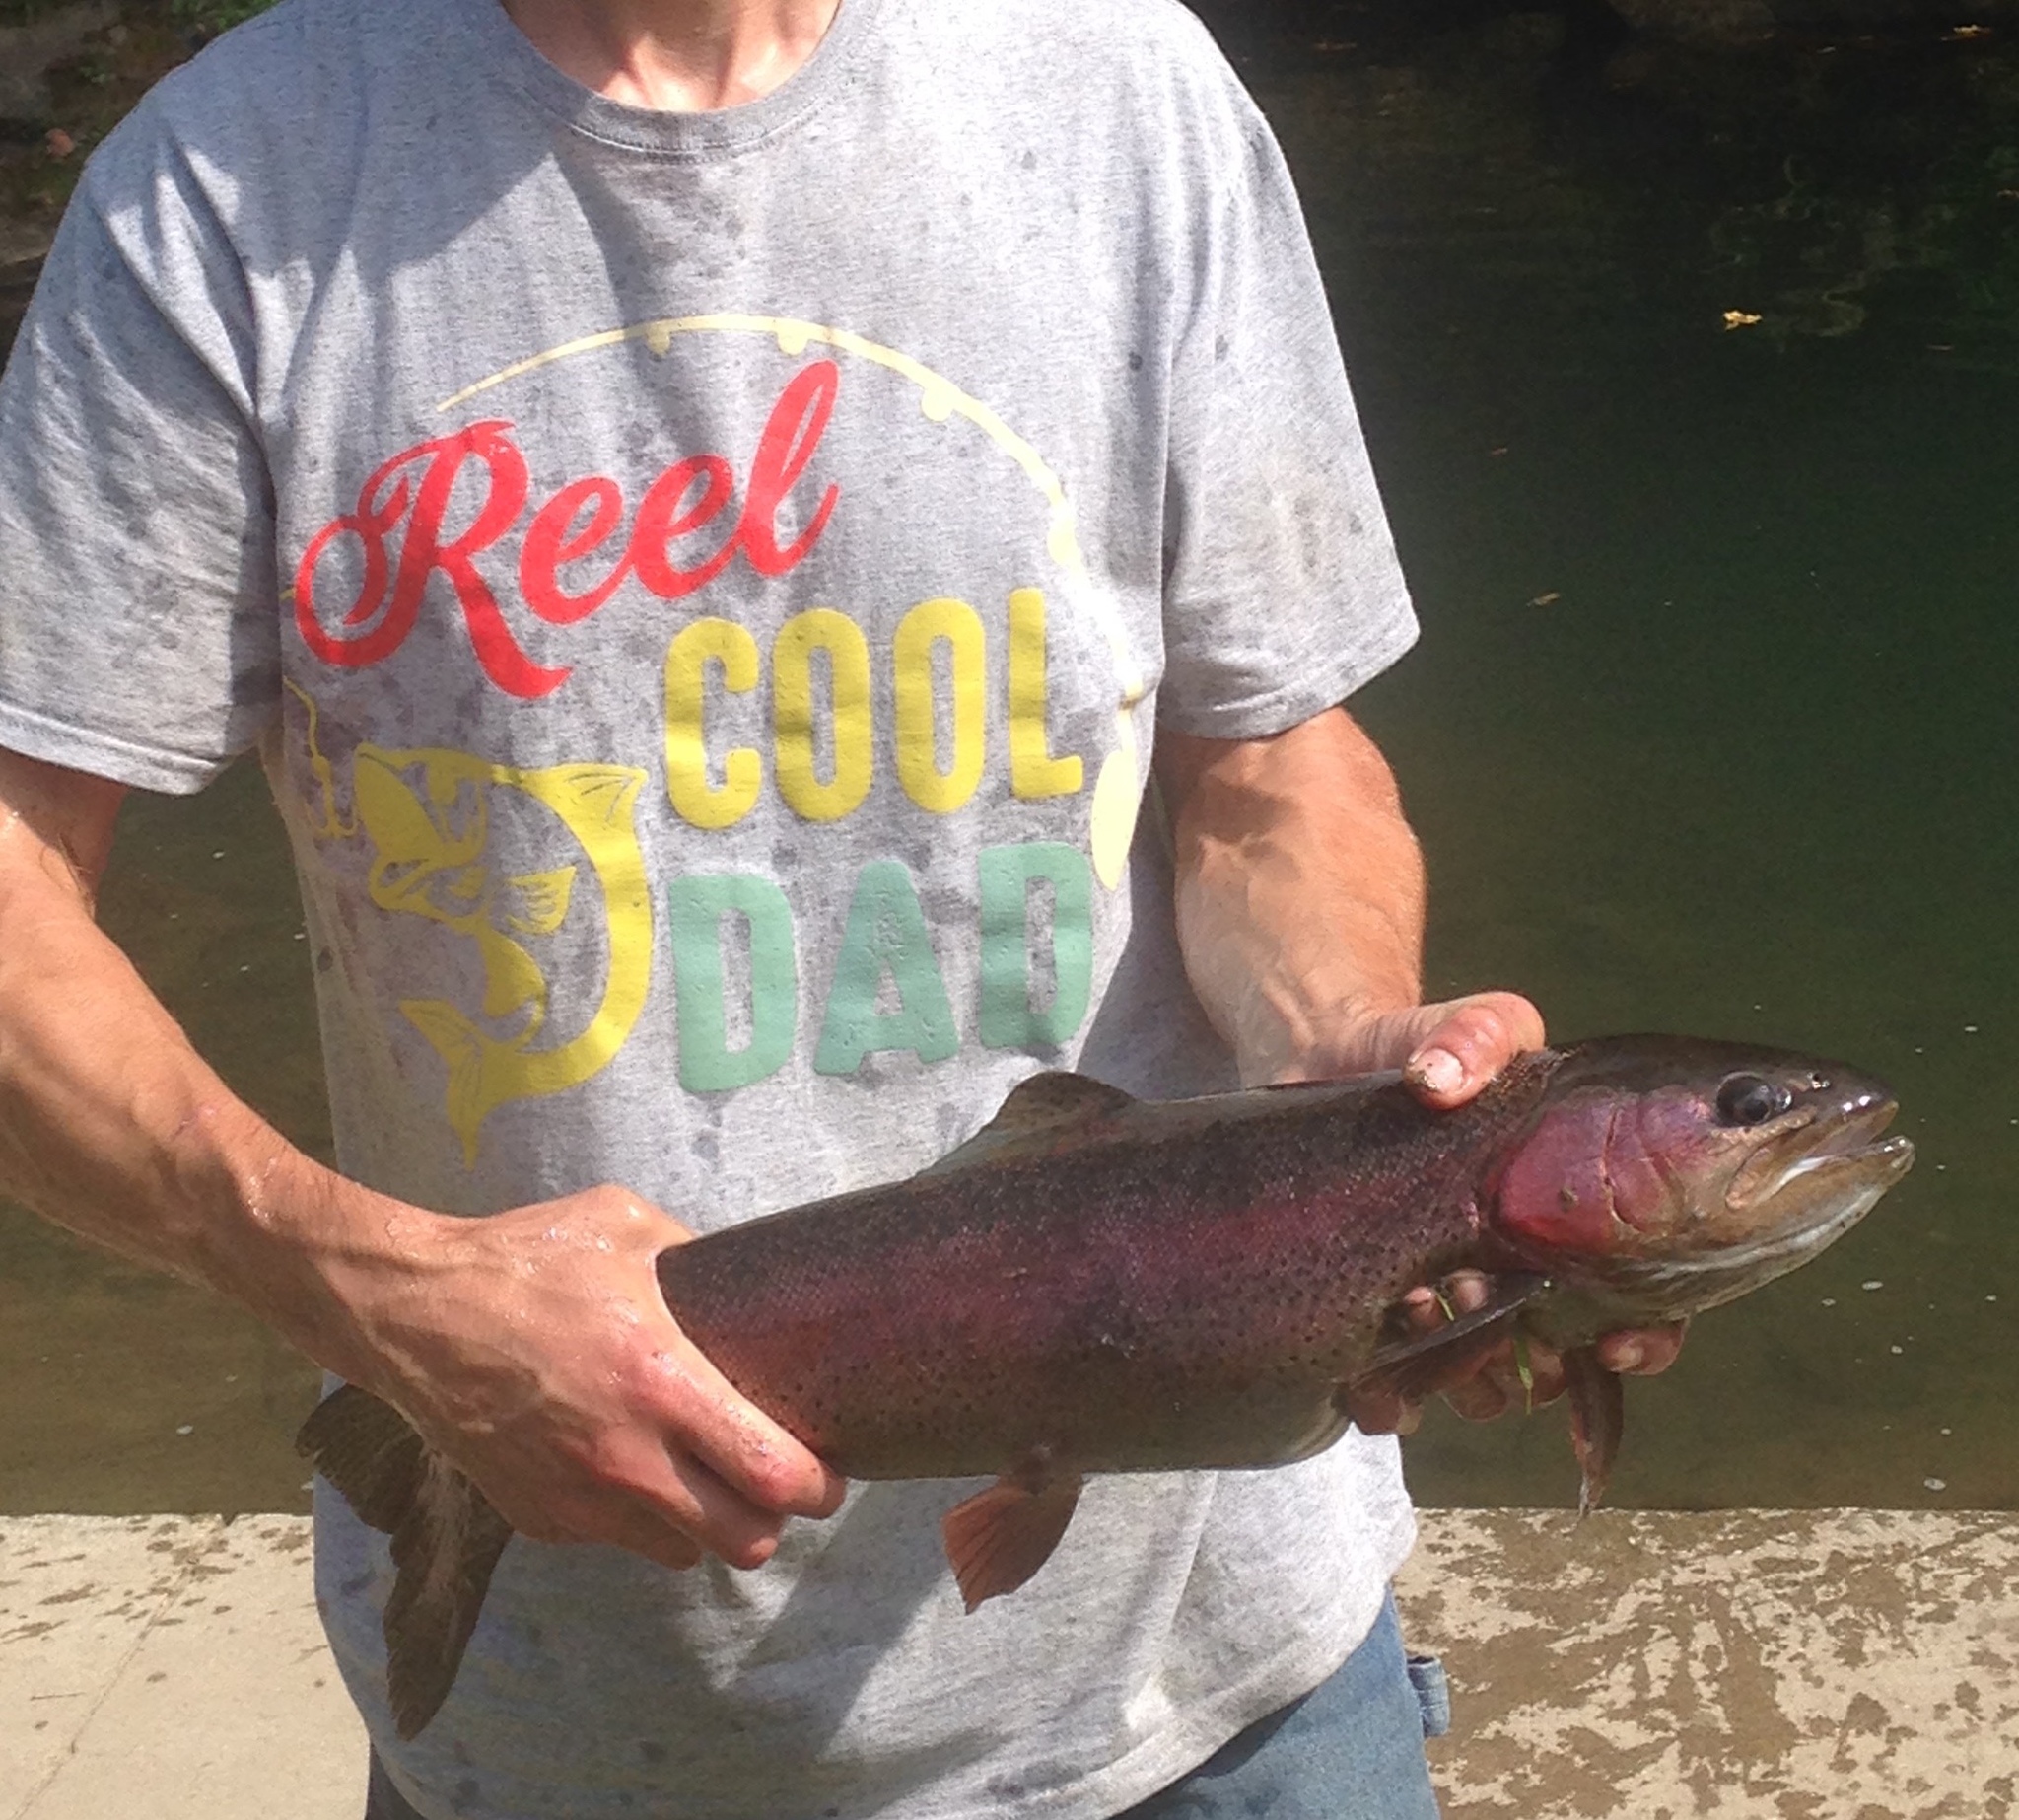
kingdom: Animalia
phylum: Chordata
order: Salmoniformes
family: Salmonidae
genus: Oncorhynchus
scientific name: Oncorhynchus mykiss
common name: Rainbow trout
